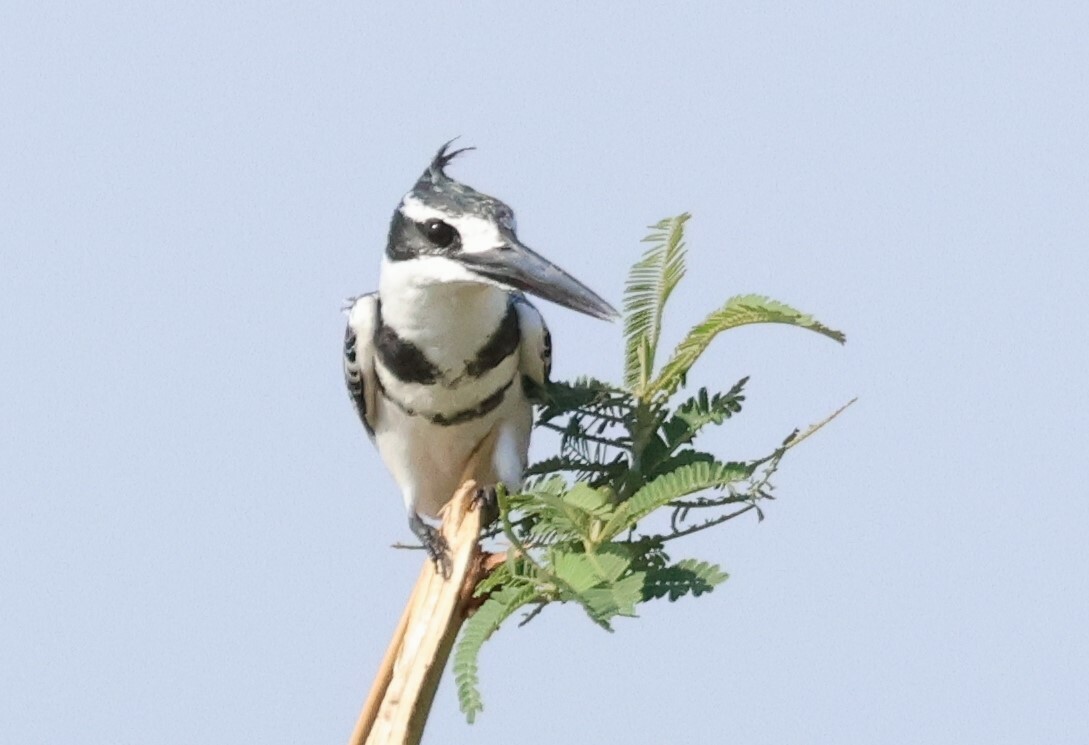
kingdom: Animalia
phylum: Chordata
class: Aves
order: Coraciiformes
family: Alcedinidae
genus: Ceryle
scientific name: Ceryle rudis
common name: Pied kingfisher
